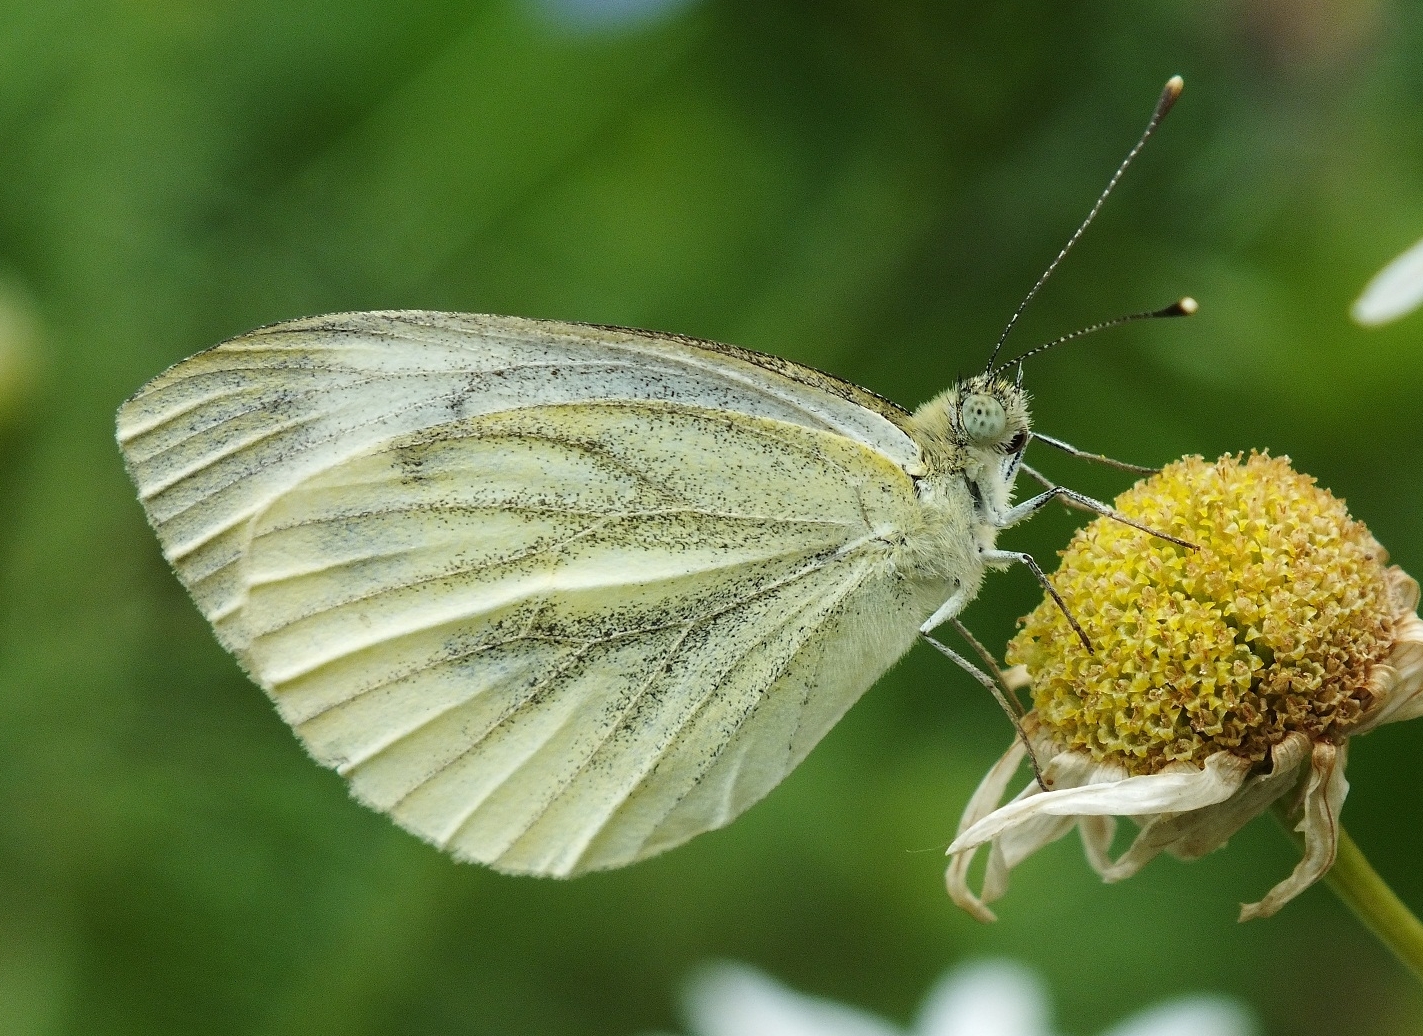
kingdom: Animalia
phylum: Arthropoda
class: Insecta
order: Lepidoptera
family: Pieridae
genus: Pieris
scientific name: Pieris napi
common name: Green-veined white
